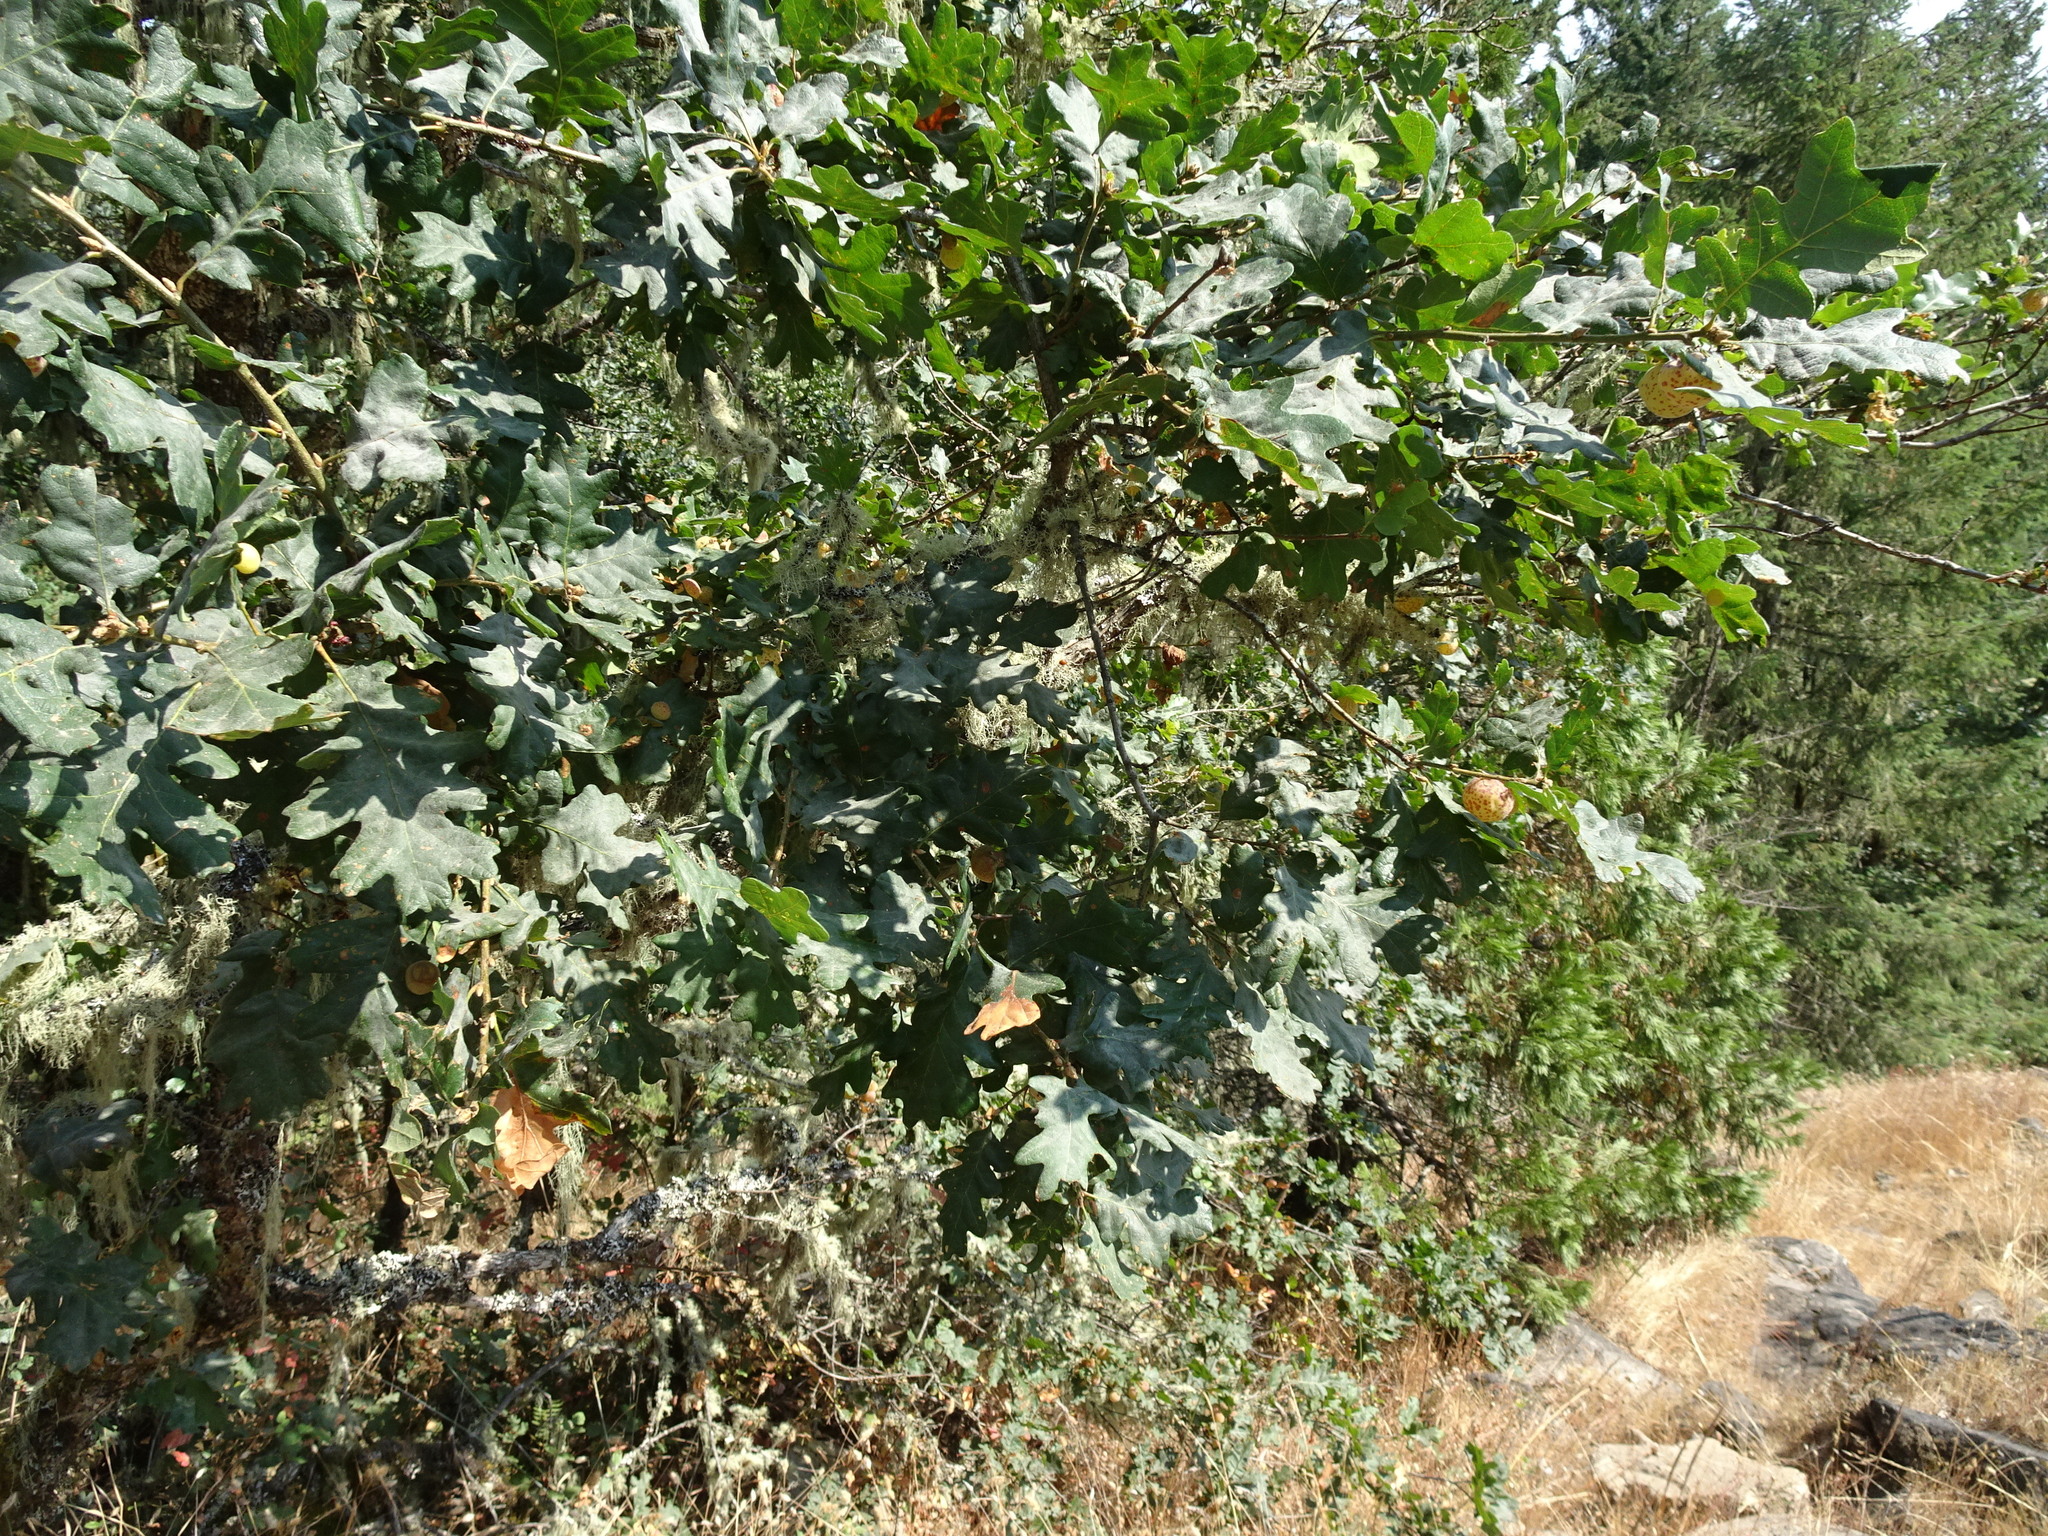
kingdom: Plantae
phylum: Tracheophyta
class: Magnoliopsida
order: Fagales
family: Fagaceae
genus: Quercus
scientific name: Quercus garryana
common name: Garry oak
